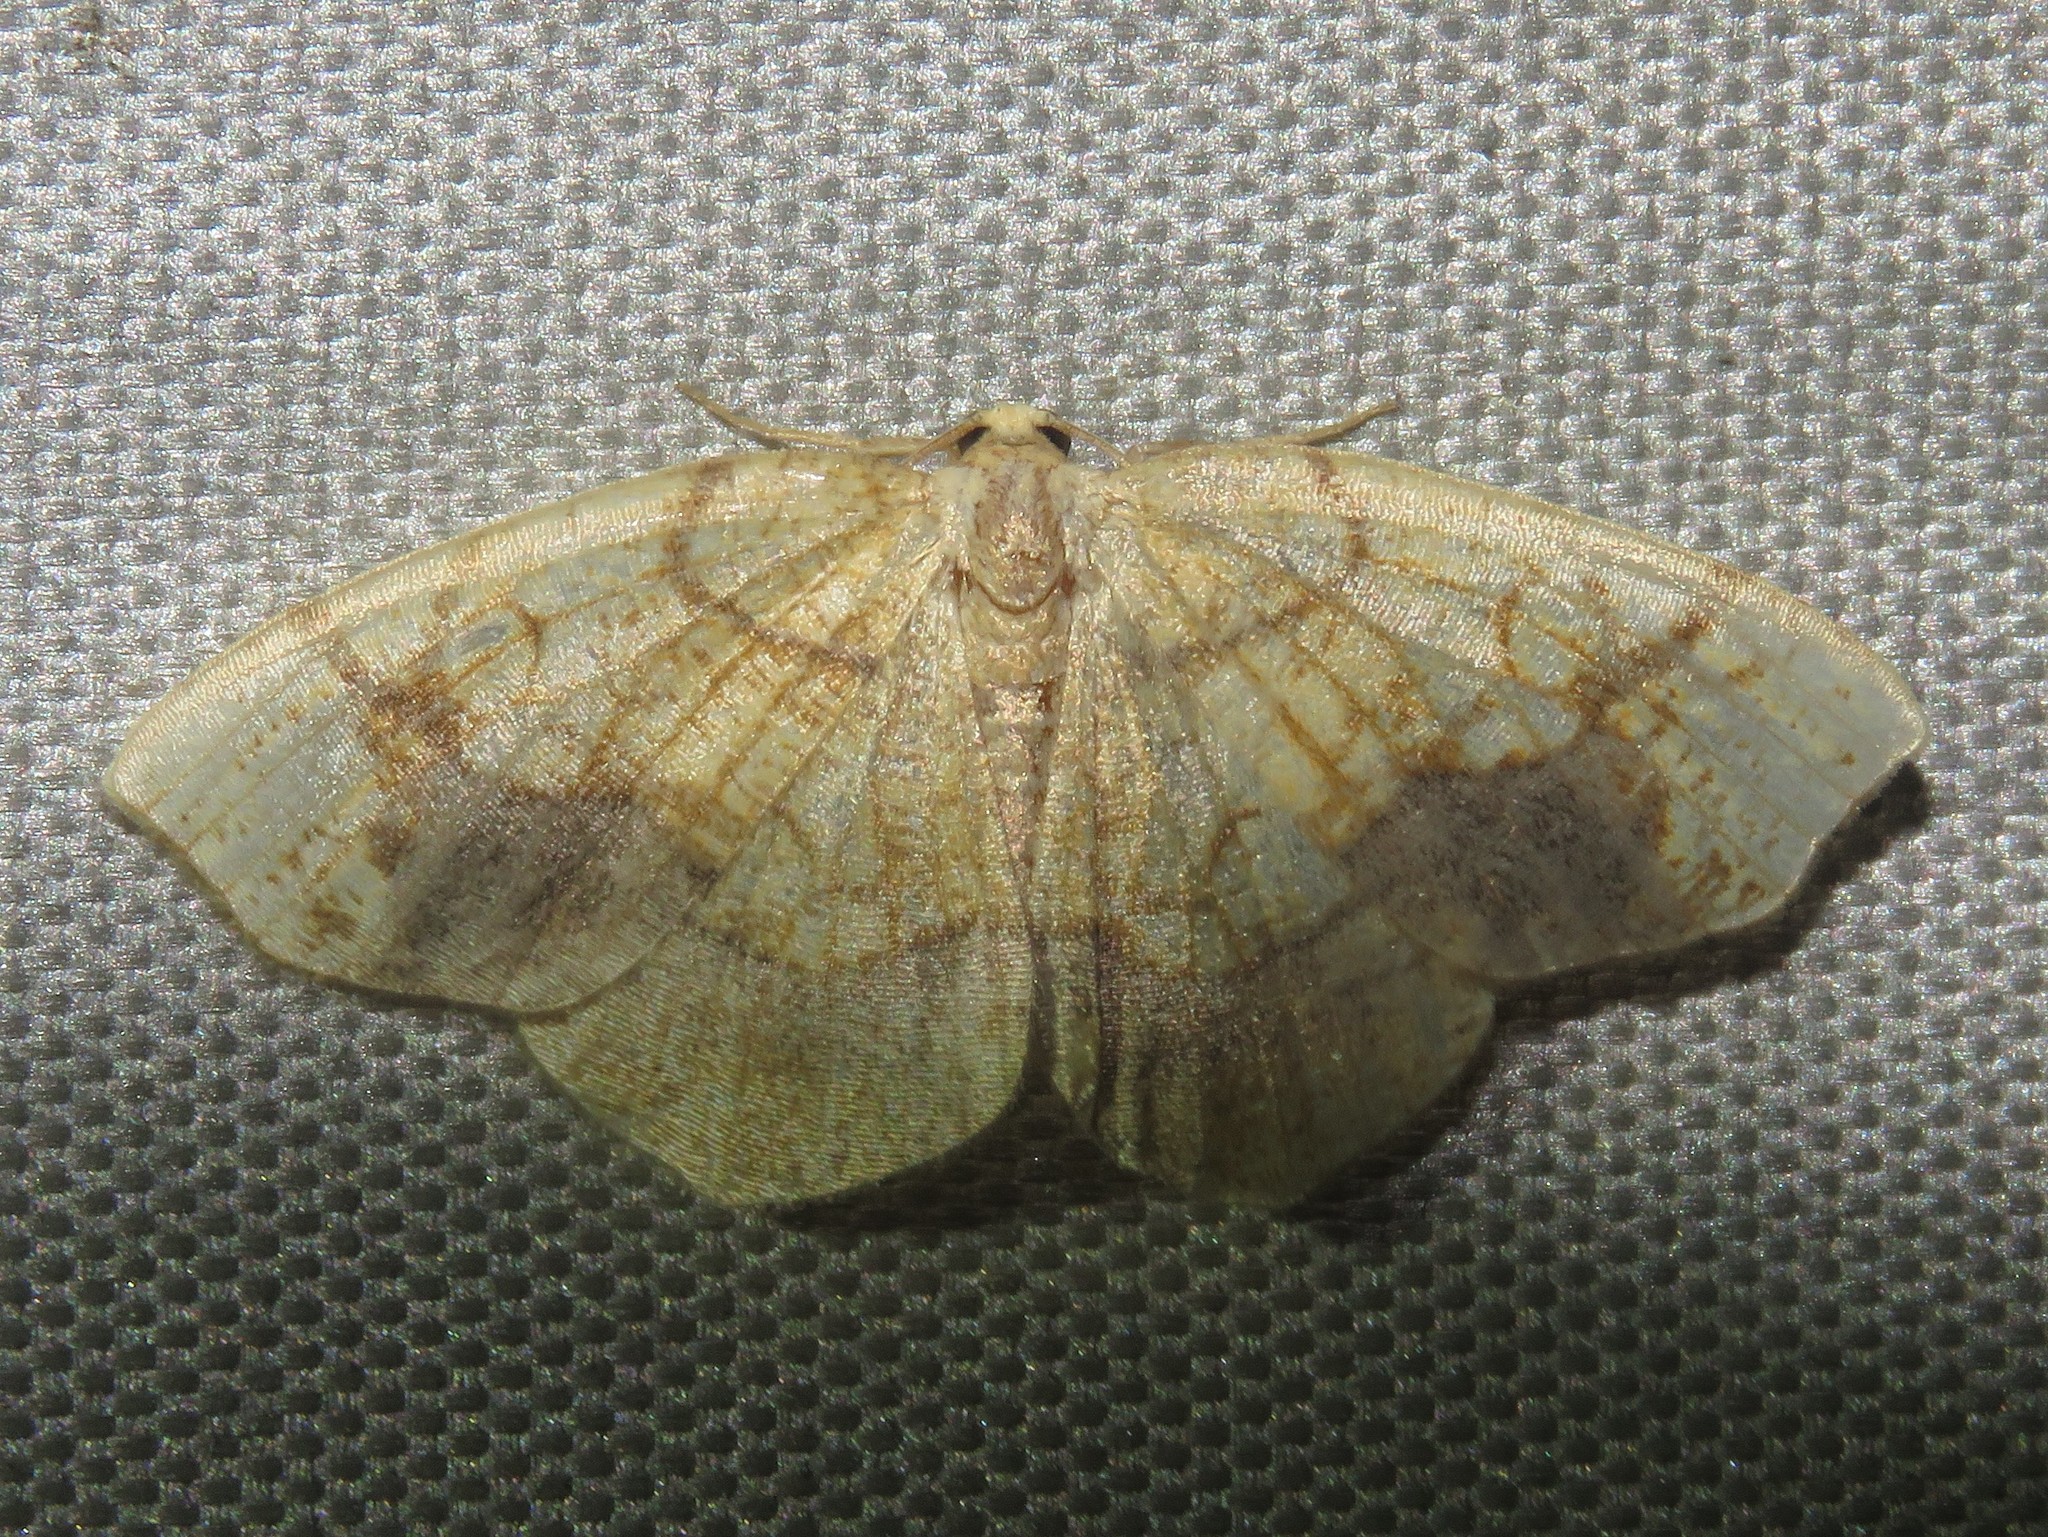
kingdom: Animalia
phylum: Arthropoda
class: Insecta
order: Lepidoptera
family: Geometridae
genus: Nematocampa
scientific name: Nematocampa resistaria
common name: Horned spanworm moth
